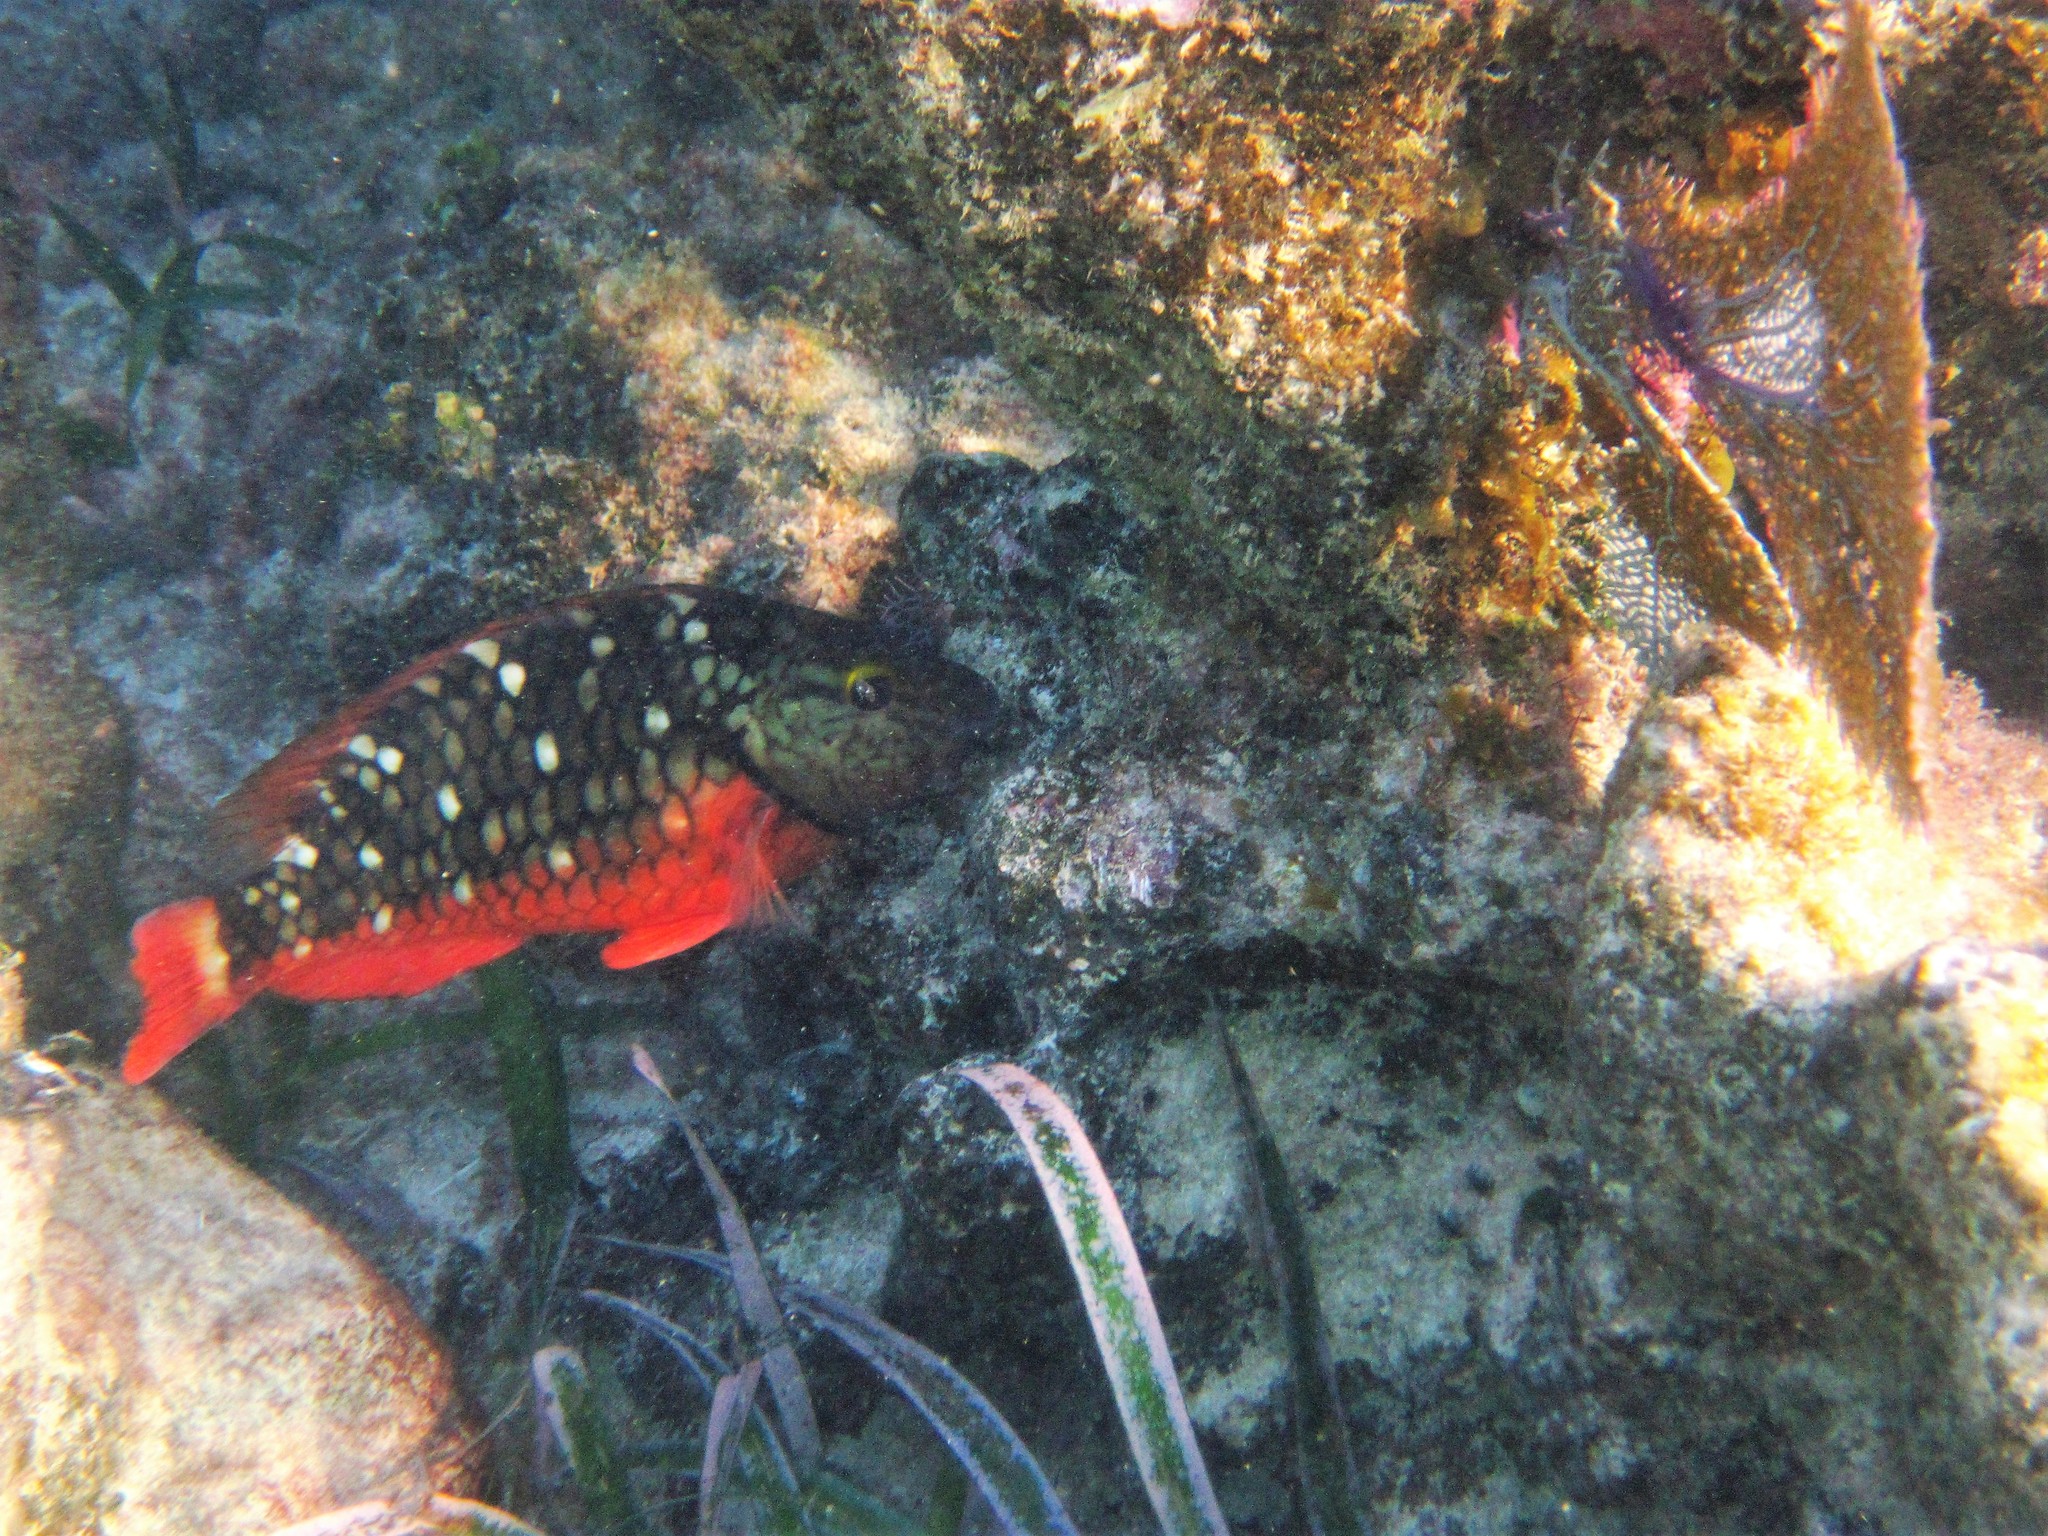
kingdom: Animalia
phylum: Chordata
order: Perciformes
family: Scaridae
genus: Sparisoma
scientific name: Sparisoma viride
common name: Stoplight parrotfish
